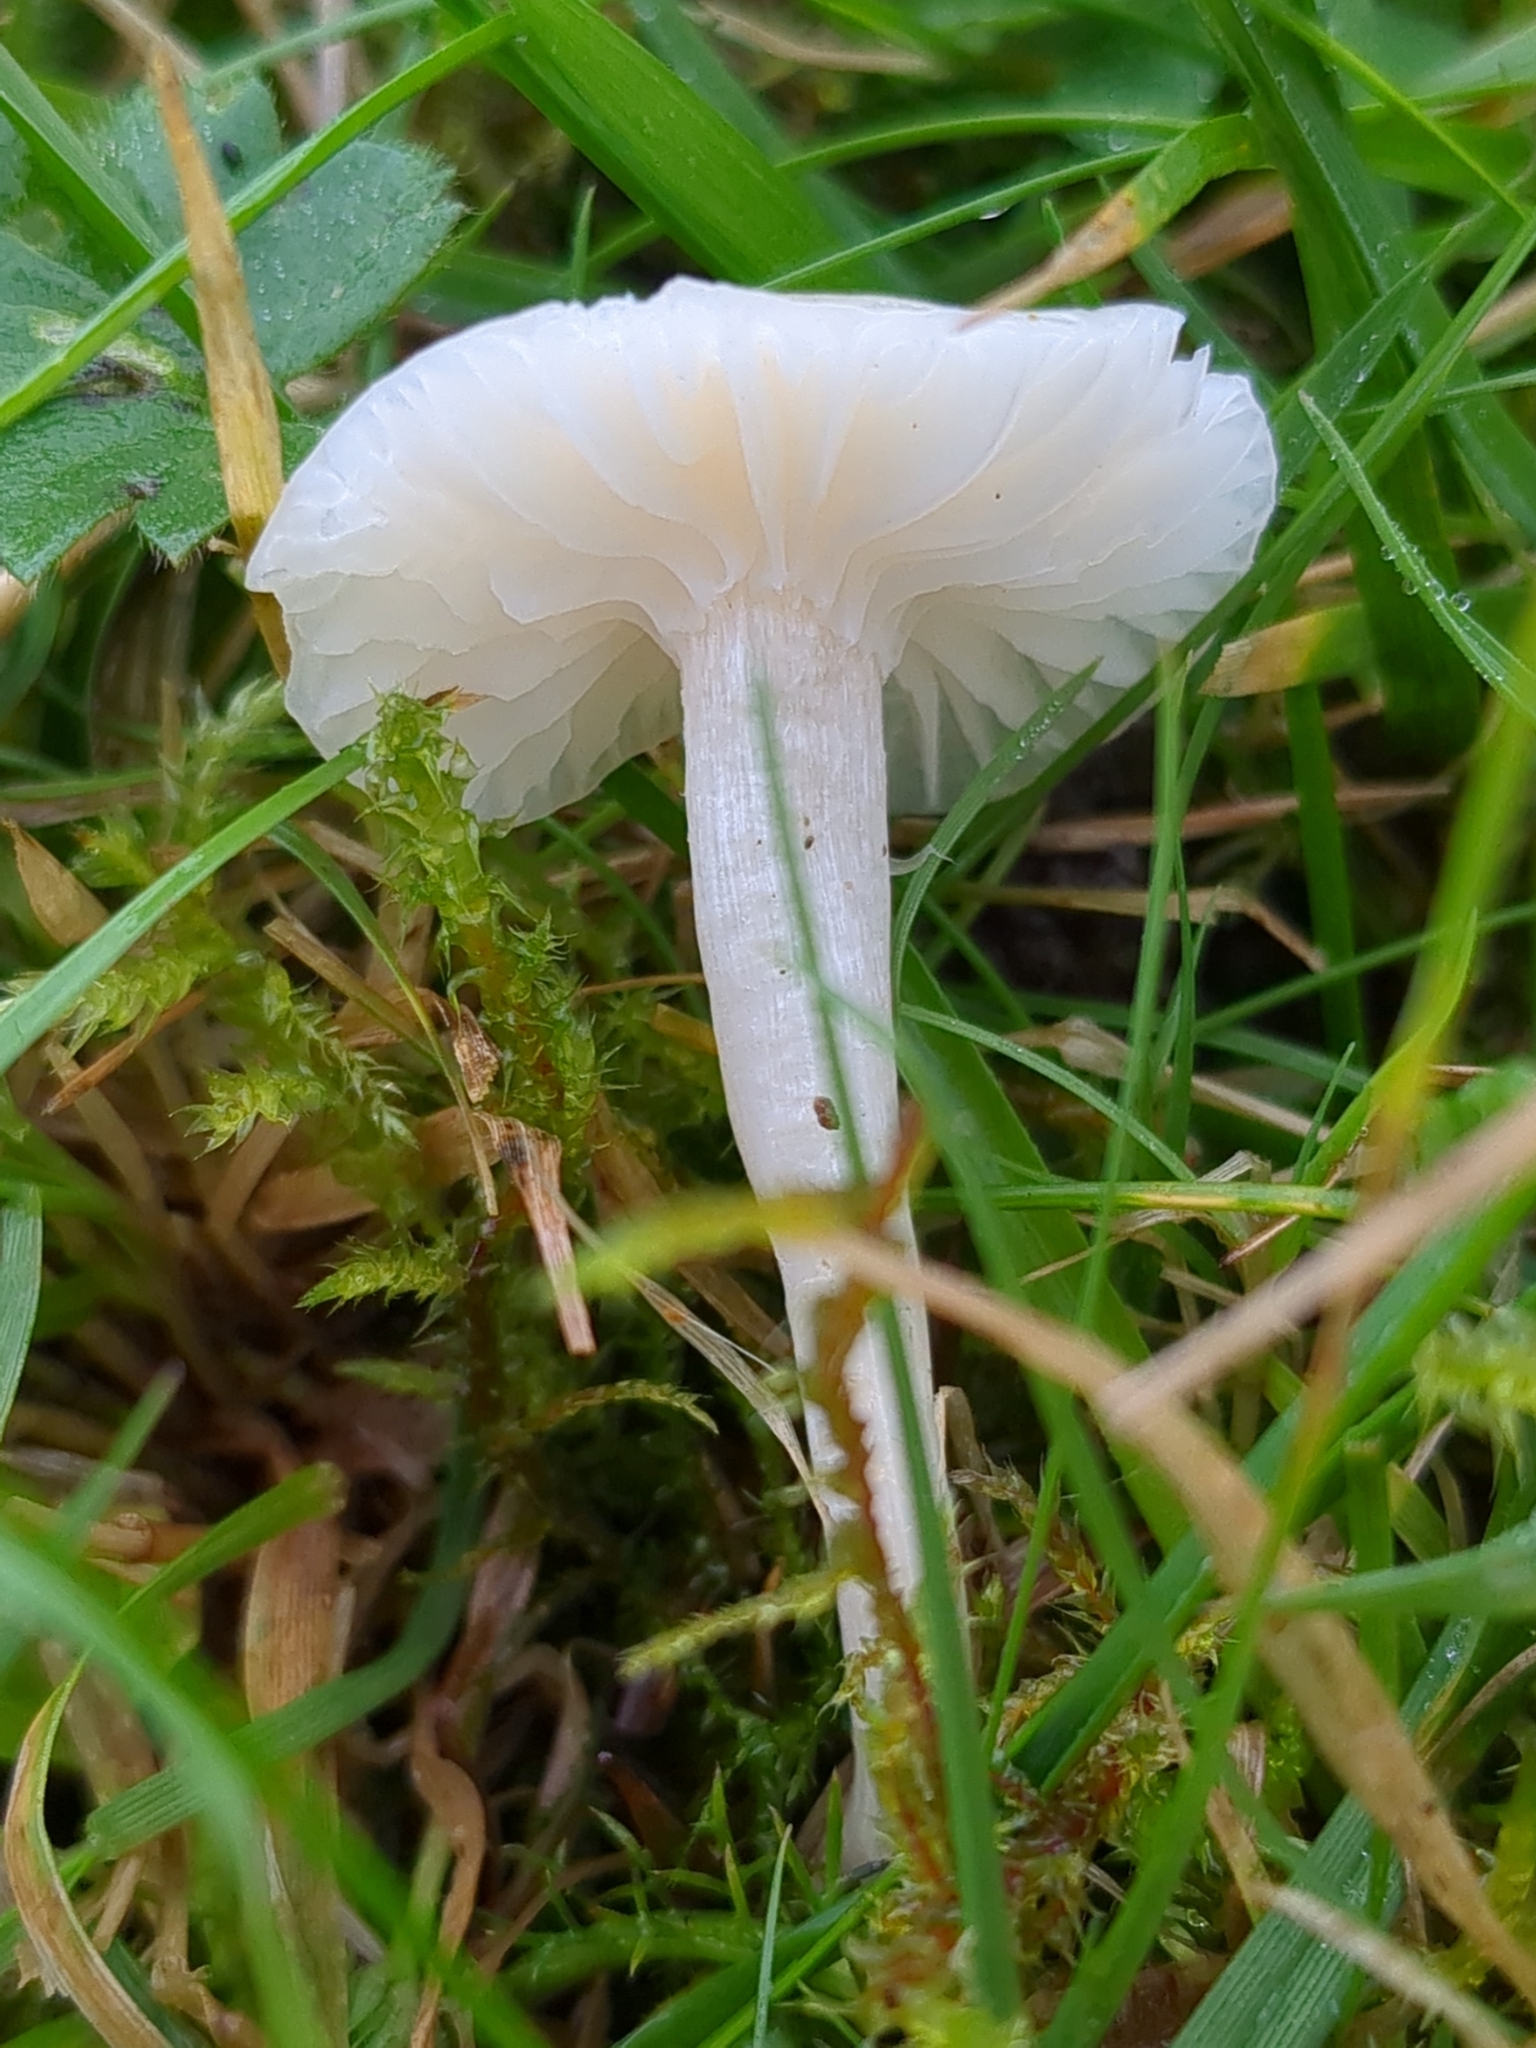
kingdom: Fungi
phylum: Basidiomycota
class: Agaricomycetes
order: Agaricales
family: Hygrophoraceae
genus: Cuphophyllus
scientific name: Cuphophyllus virgineus
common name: Snowy waxcap
